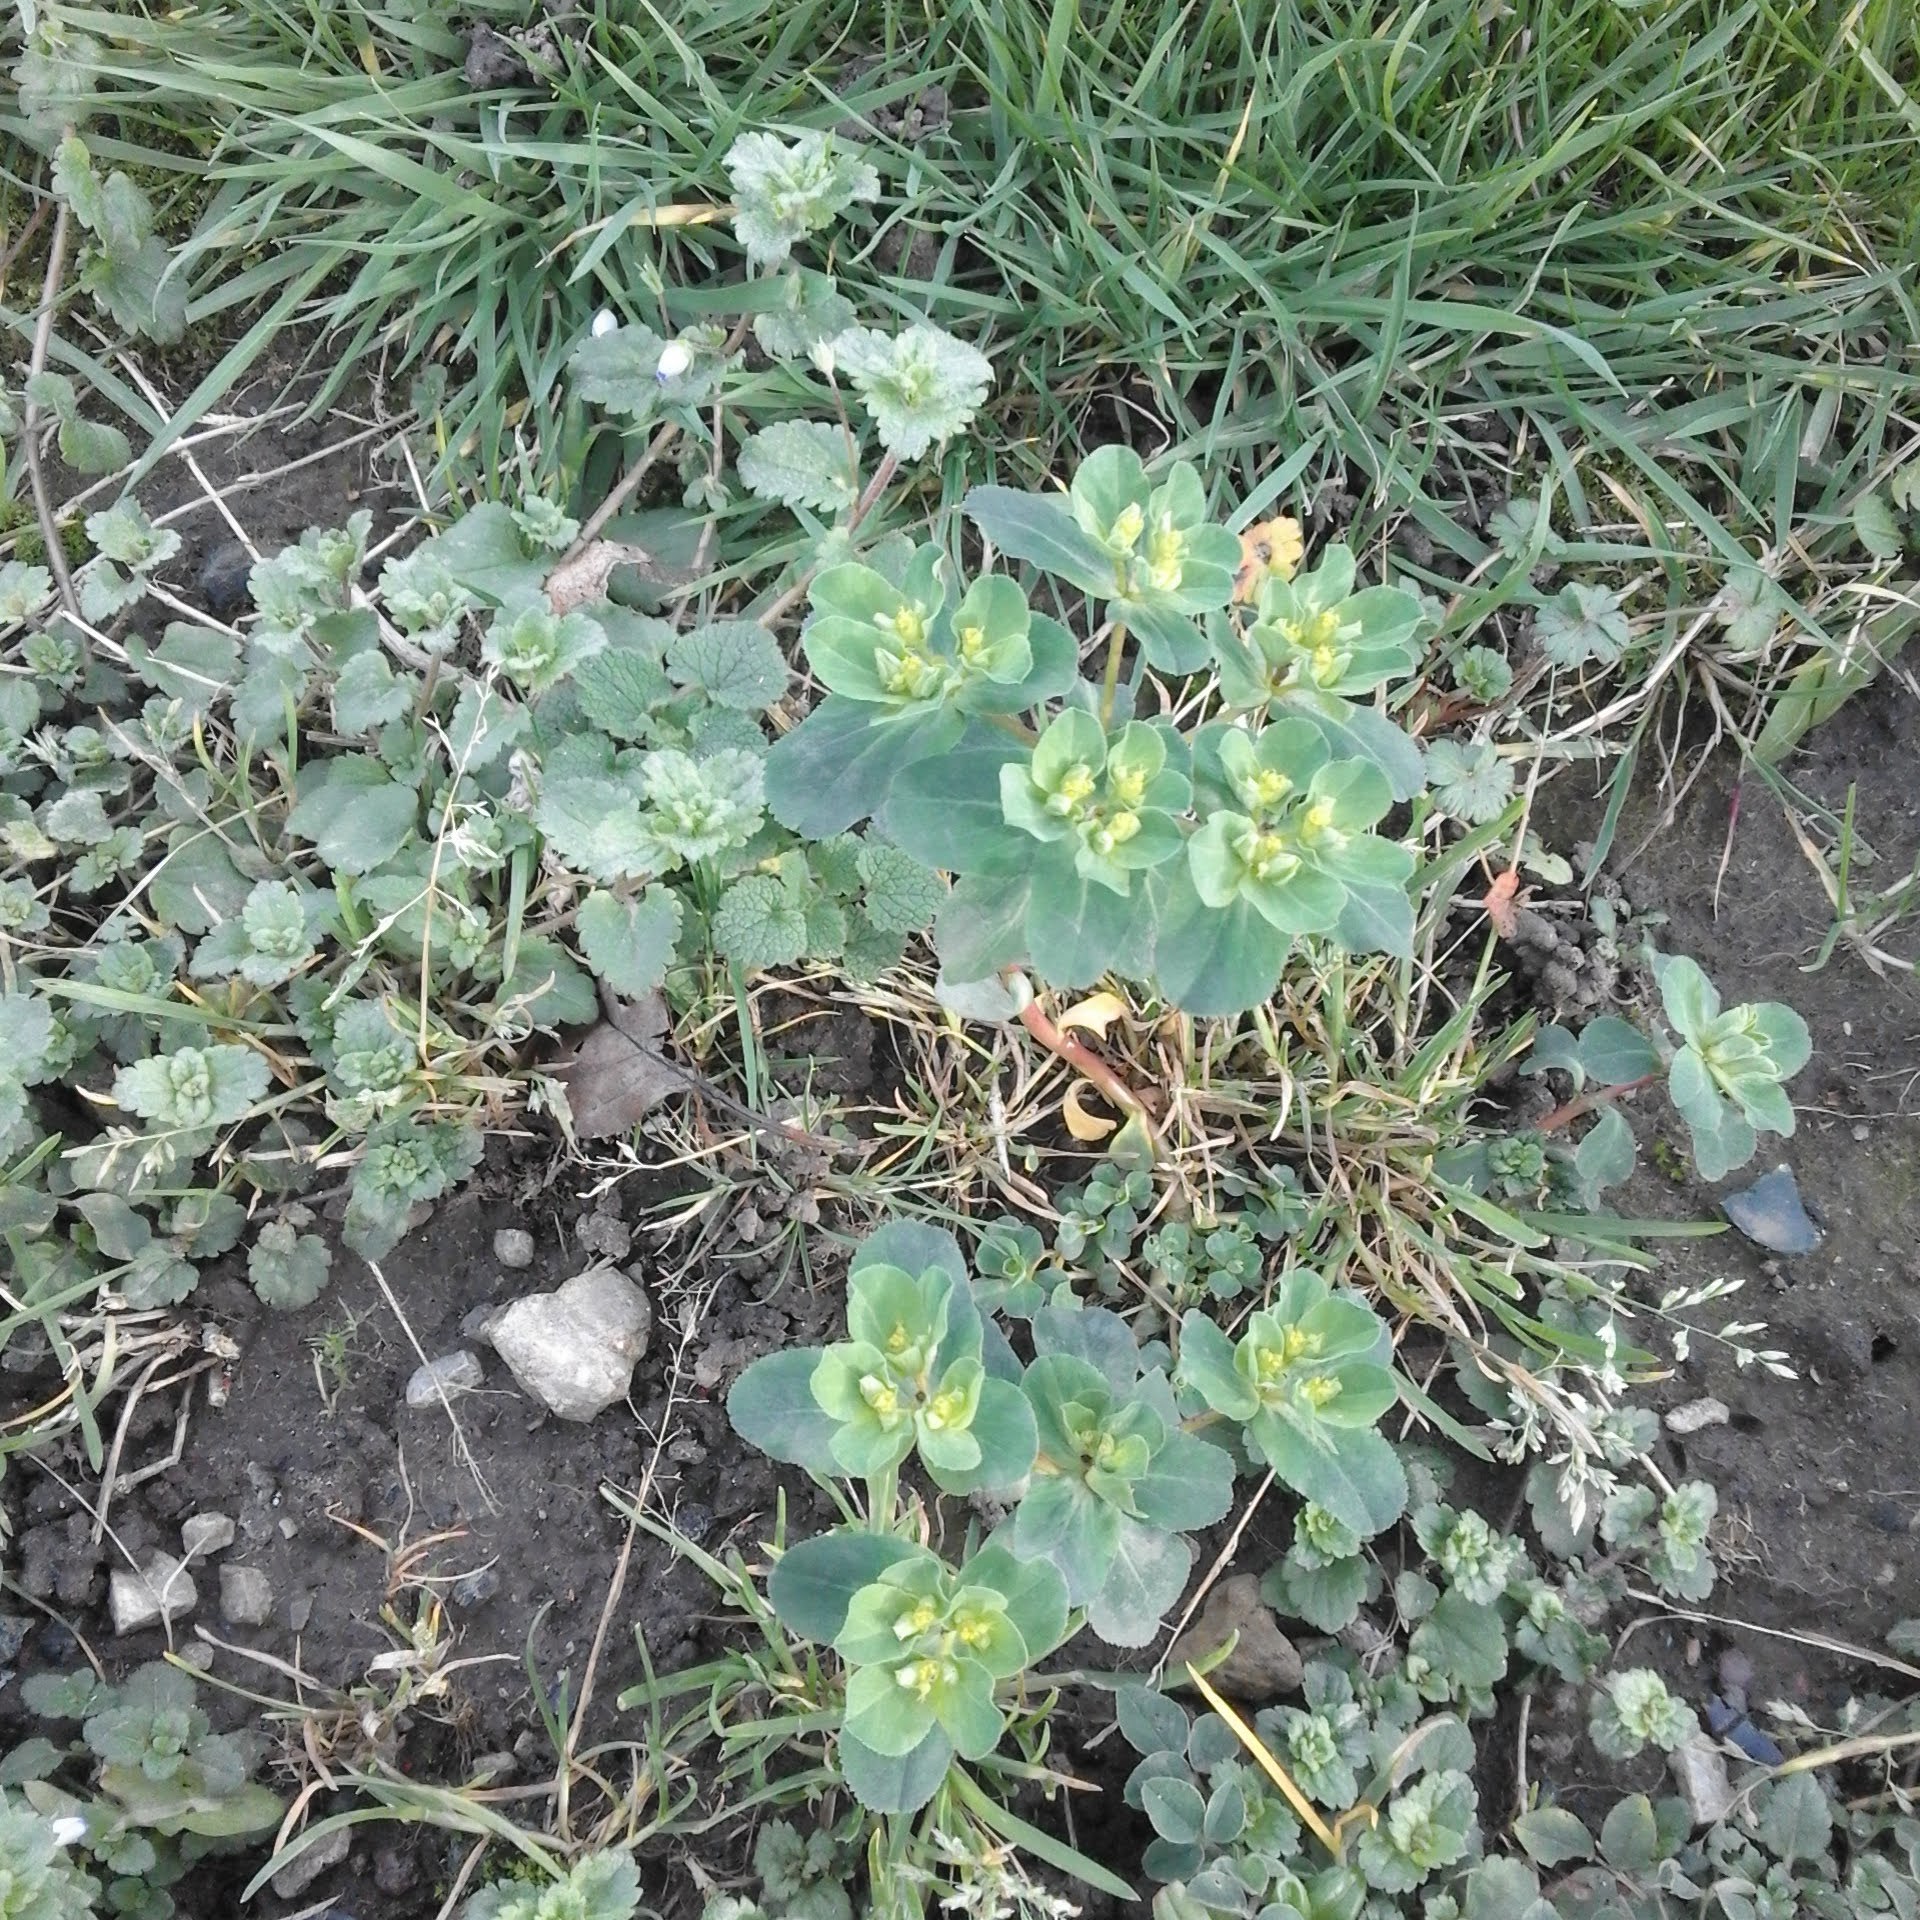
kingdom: Plantae
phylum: Tracheophyta
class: Magnoliopsida
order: Malpighiales
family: Euphorbiaceae
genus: Euphorbia
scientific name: Euphorbia helioscopia
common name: Sun spurge
